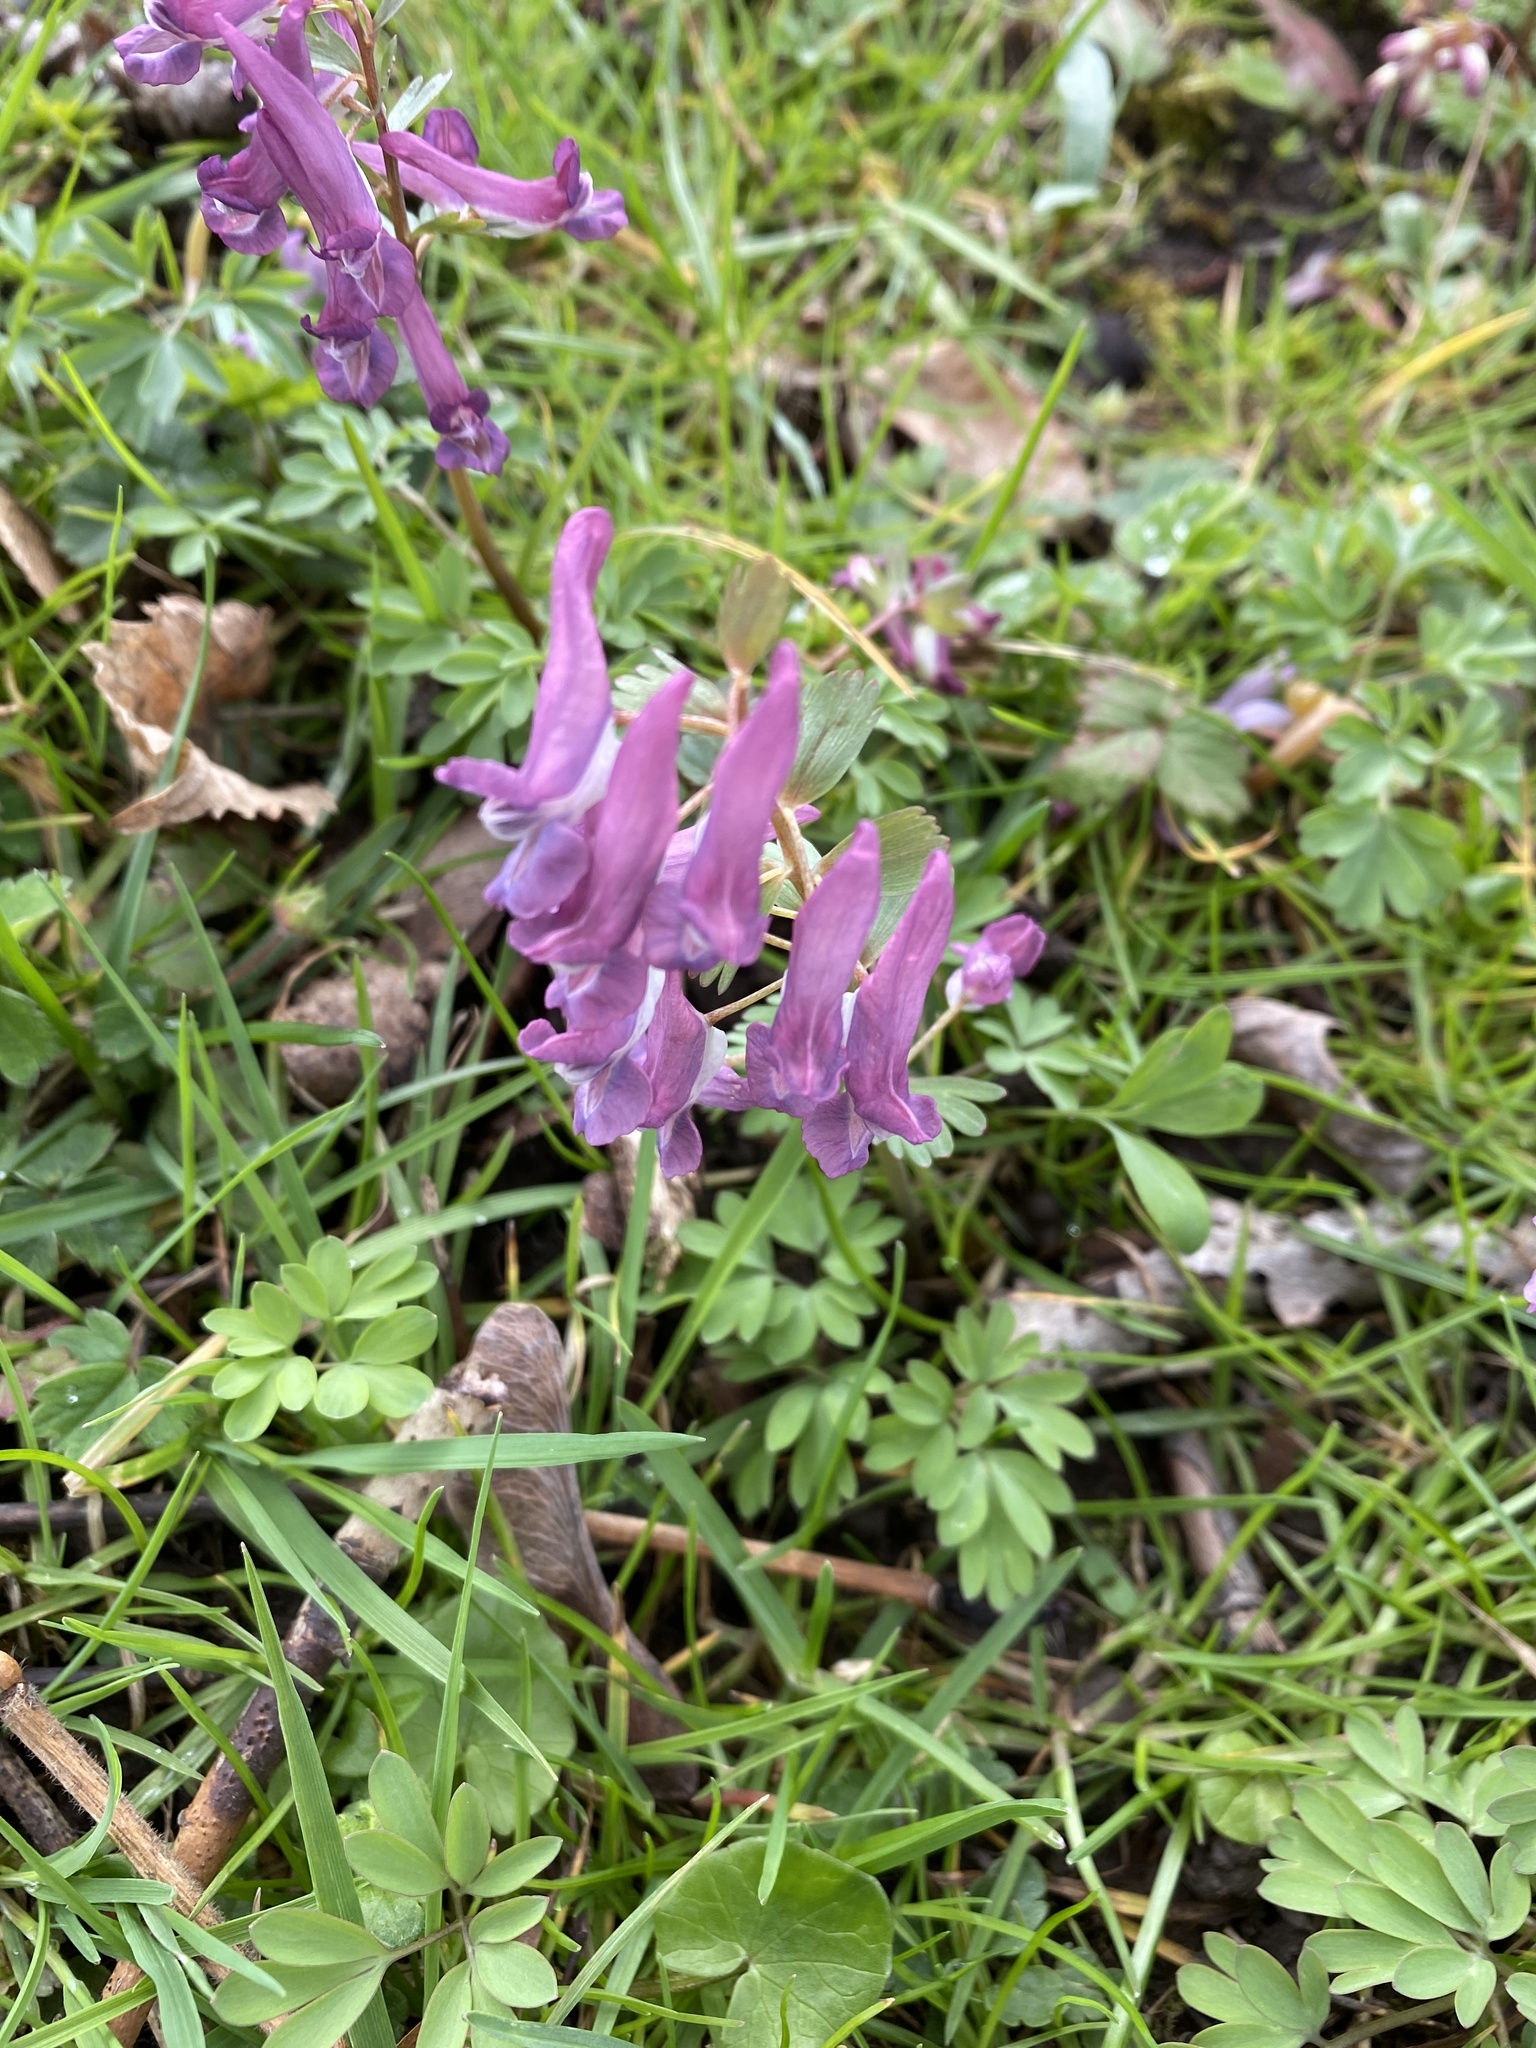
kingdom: Plantae
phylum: Tracheophyta
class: Magnoliopsida
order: Ranunculales
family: Papaveraceae
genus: Corydalis
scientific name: Corydalis solida
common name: Bird-in-a-bush
